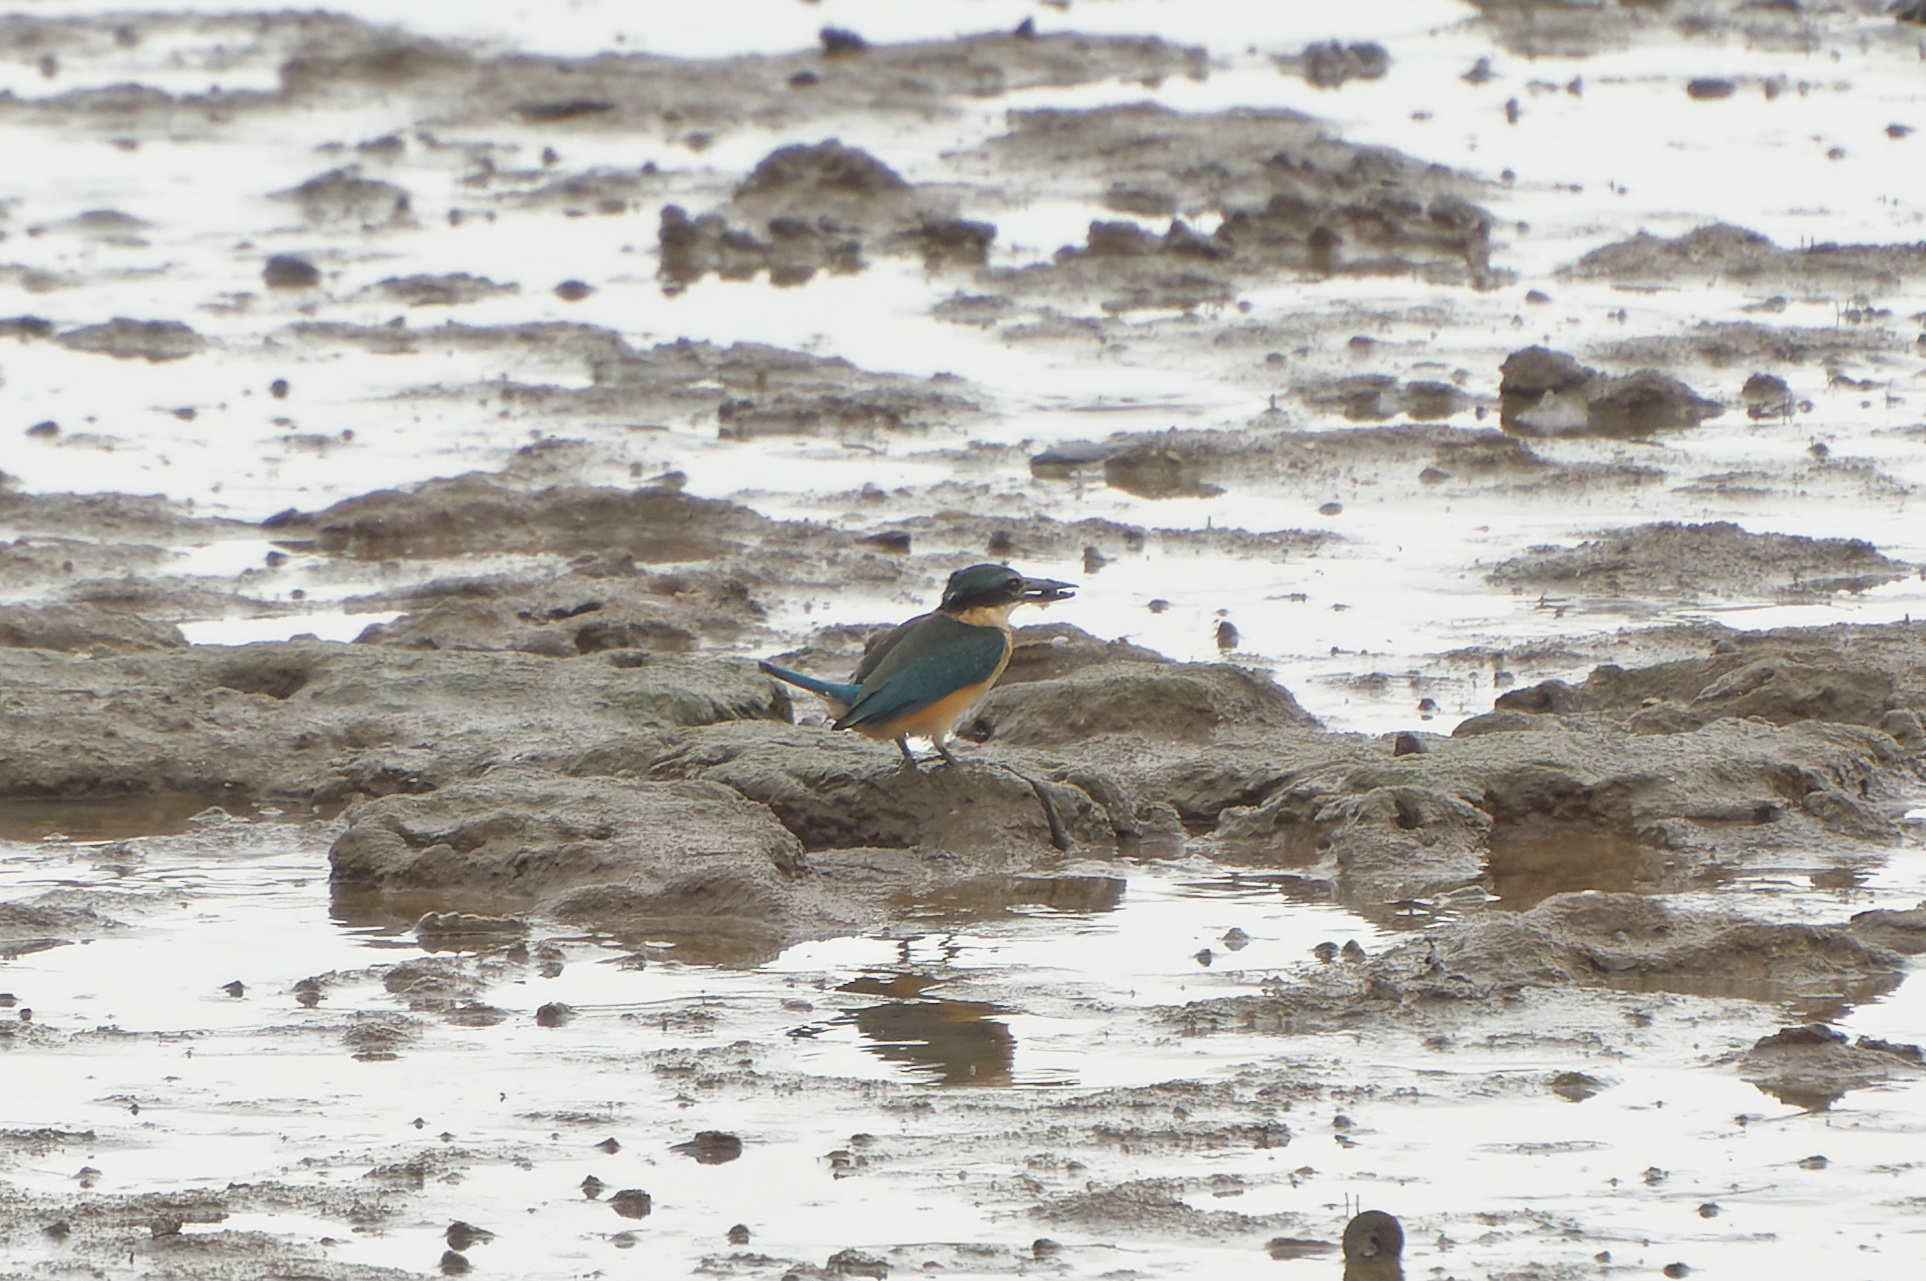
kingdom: Animalia
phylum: Chordata
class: Aves
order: Coraciiformes
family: Alcedinidae
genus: Todiramphus
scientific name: Todiramphus sanctus
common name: Sacred kingfisher
